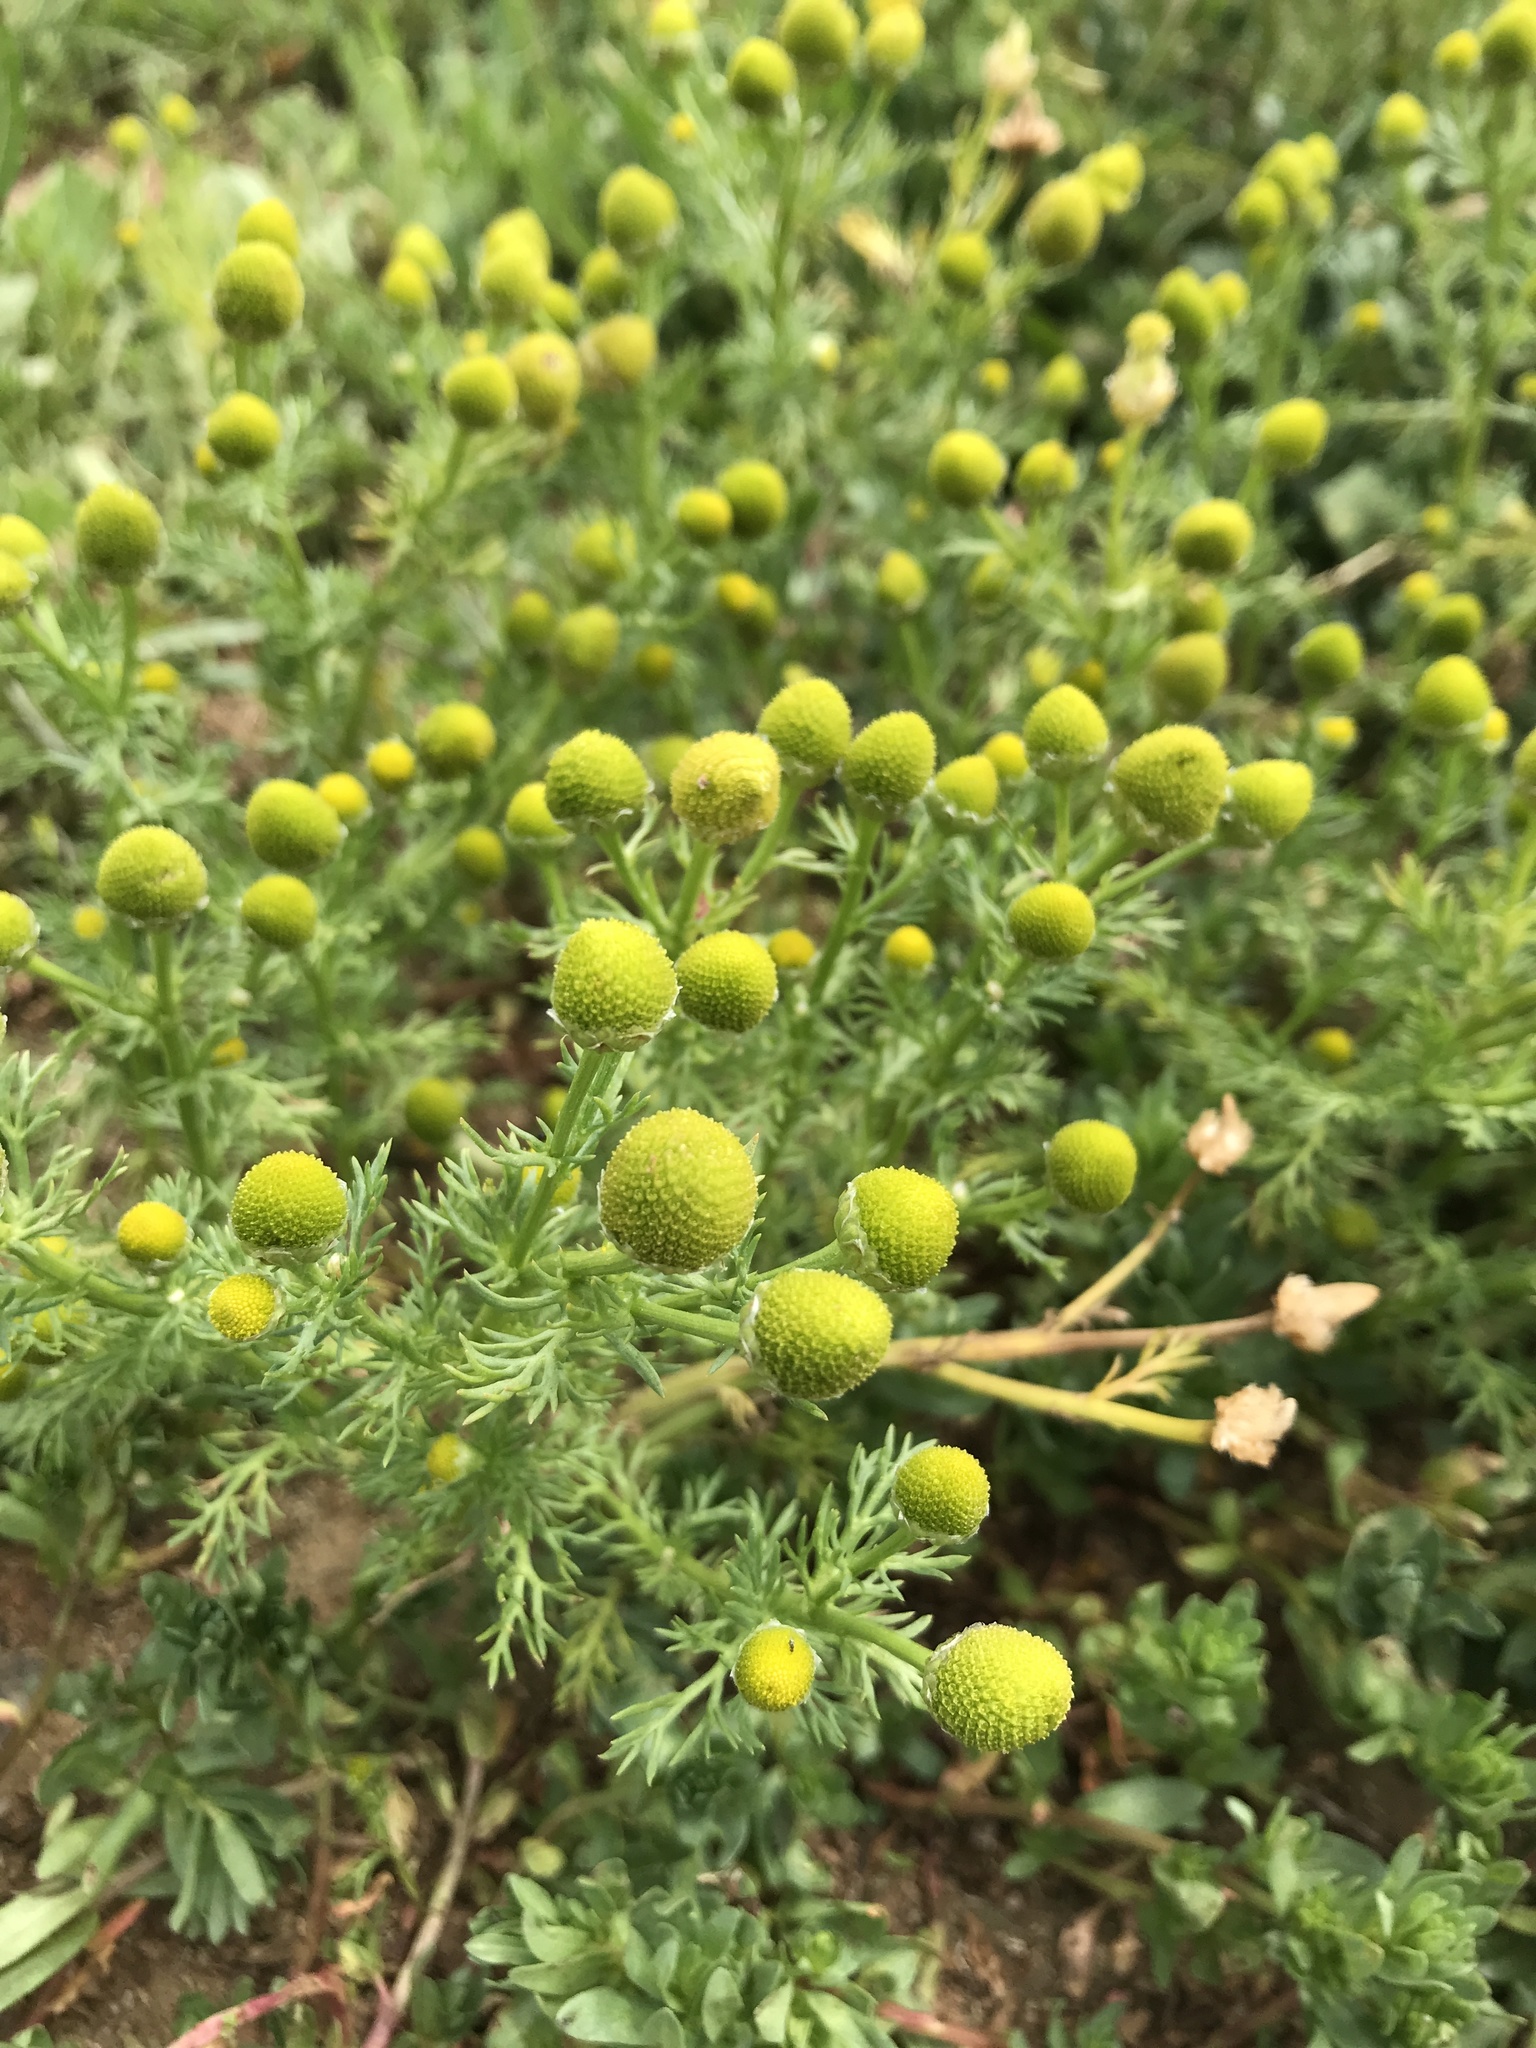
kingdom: Plantae
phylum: Tracheophyta
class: Magnoliopsida
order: Asterales
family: Asteraceae
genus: Matricaria
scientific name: Matricaria discoidea
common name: Disc mayweed
